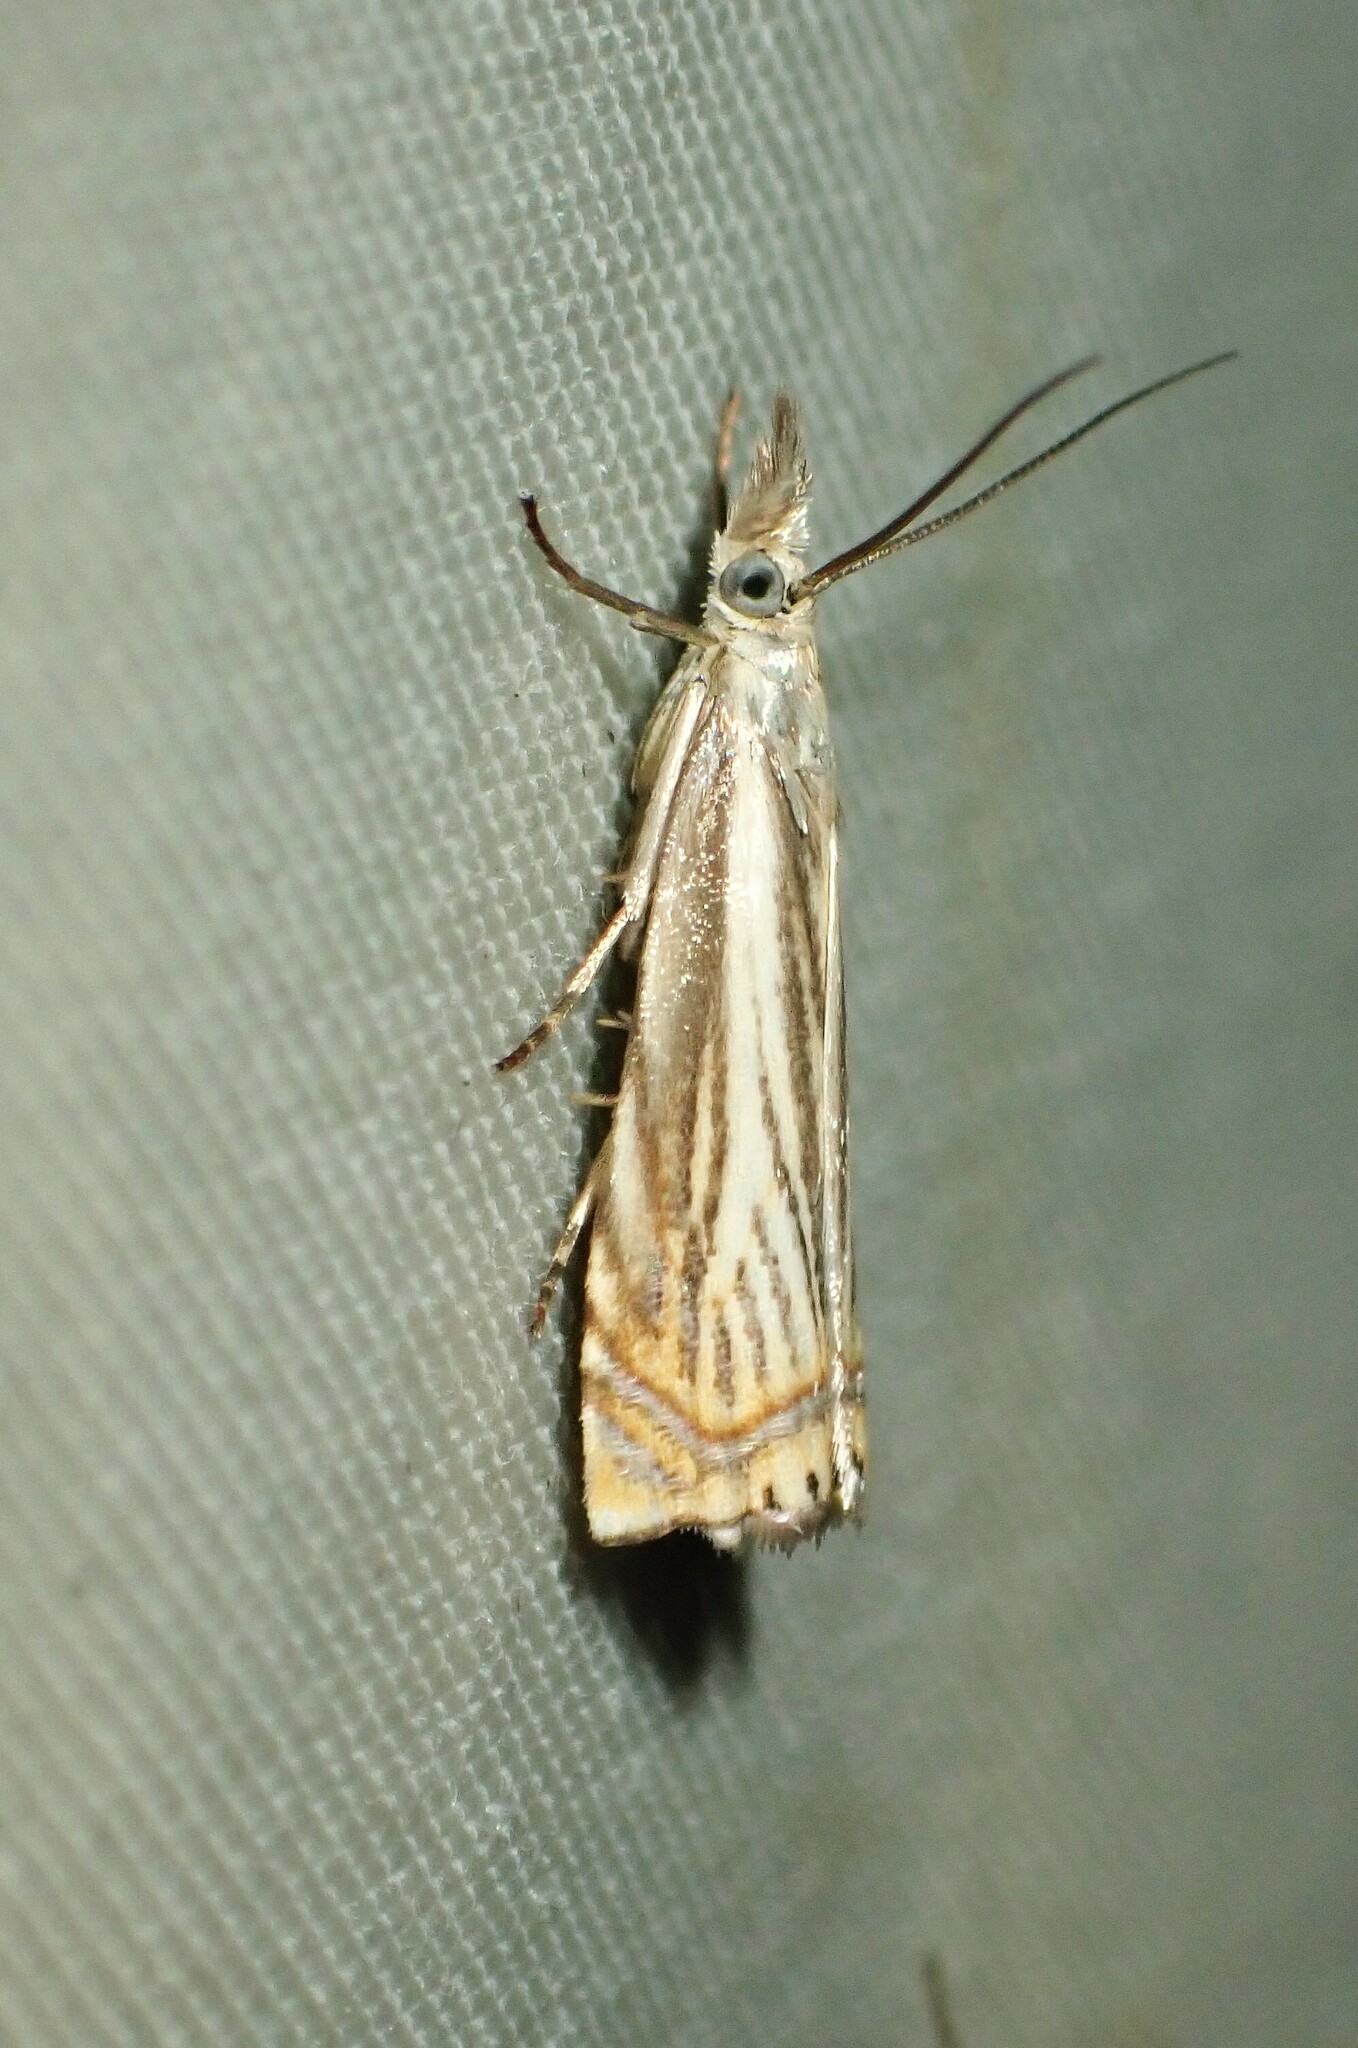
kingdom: Animalia
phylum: Arthropoda
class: Insecta
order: Lepidoptera
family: Crambidae
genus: Chrysoteuchia
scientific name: Chrysoteuchia topiarius
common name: Topiary grass-veneer
